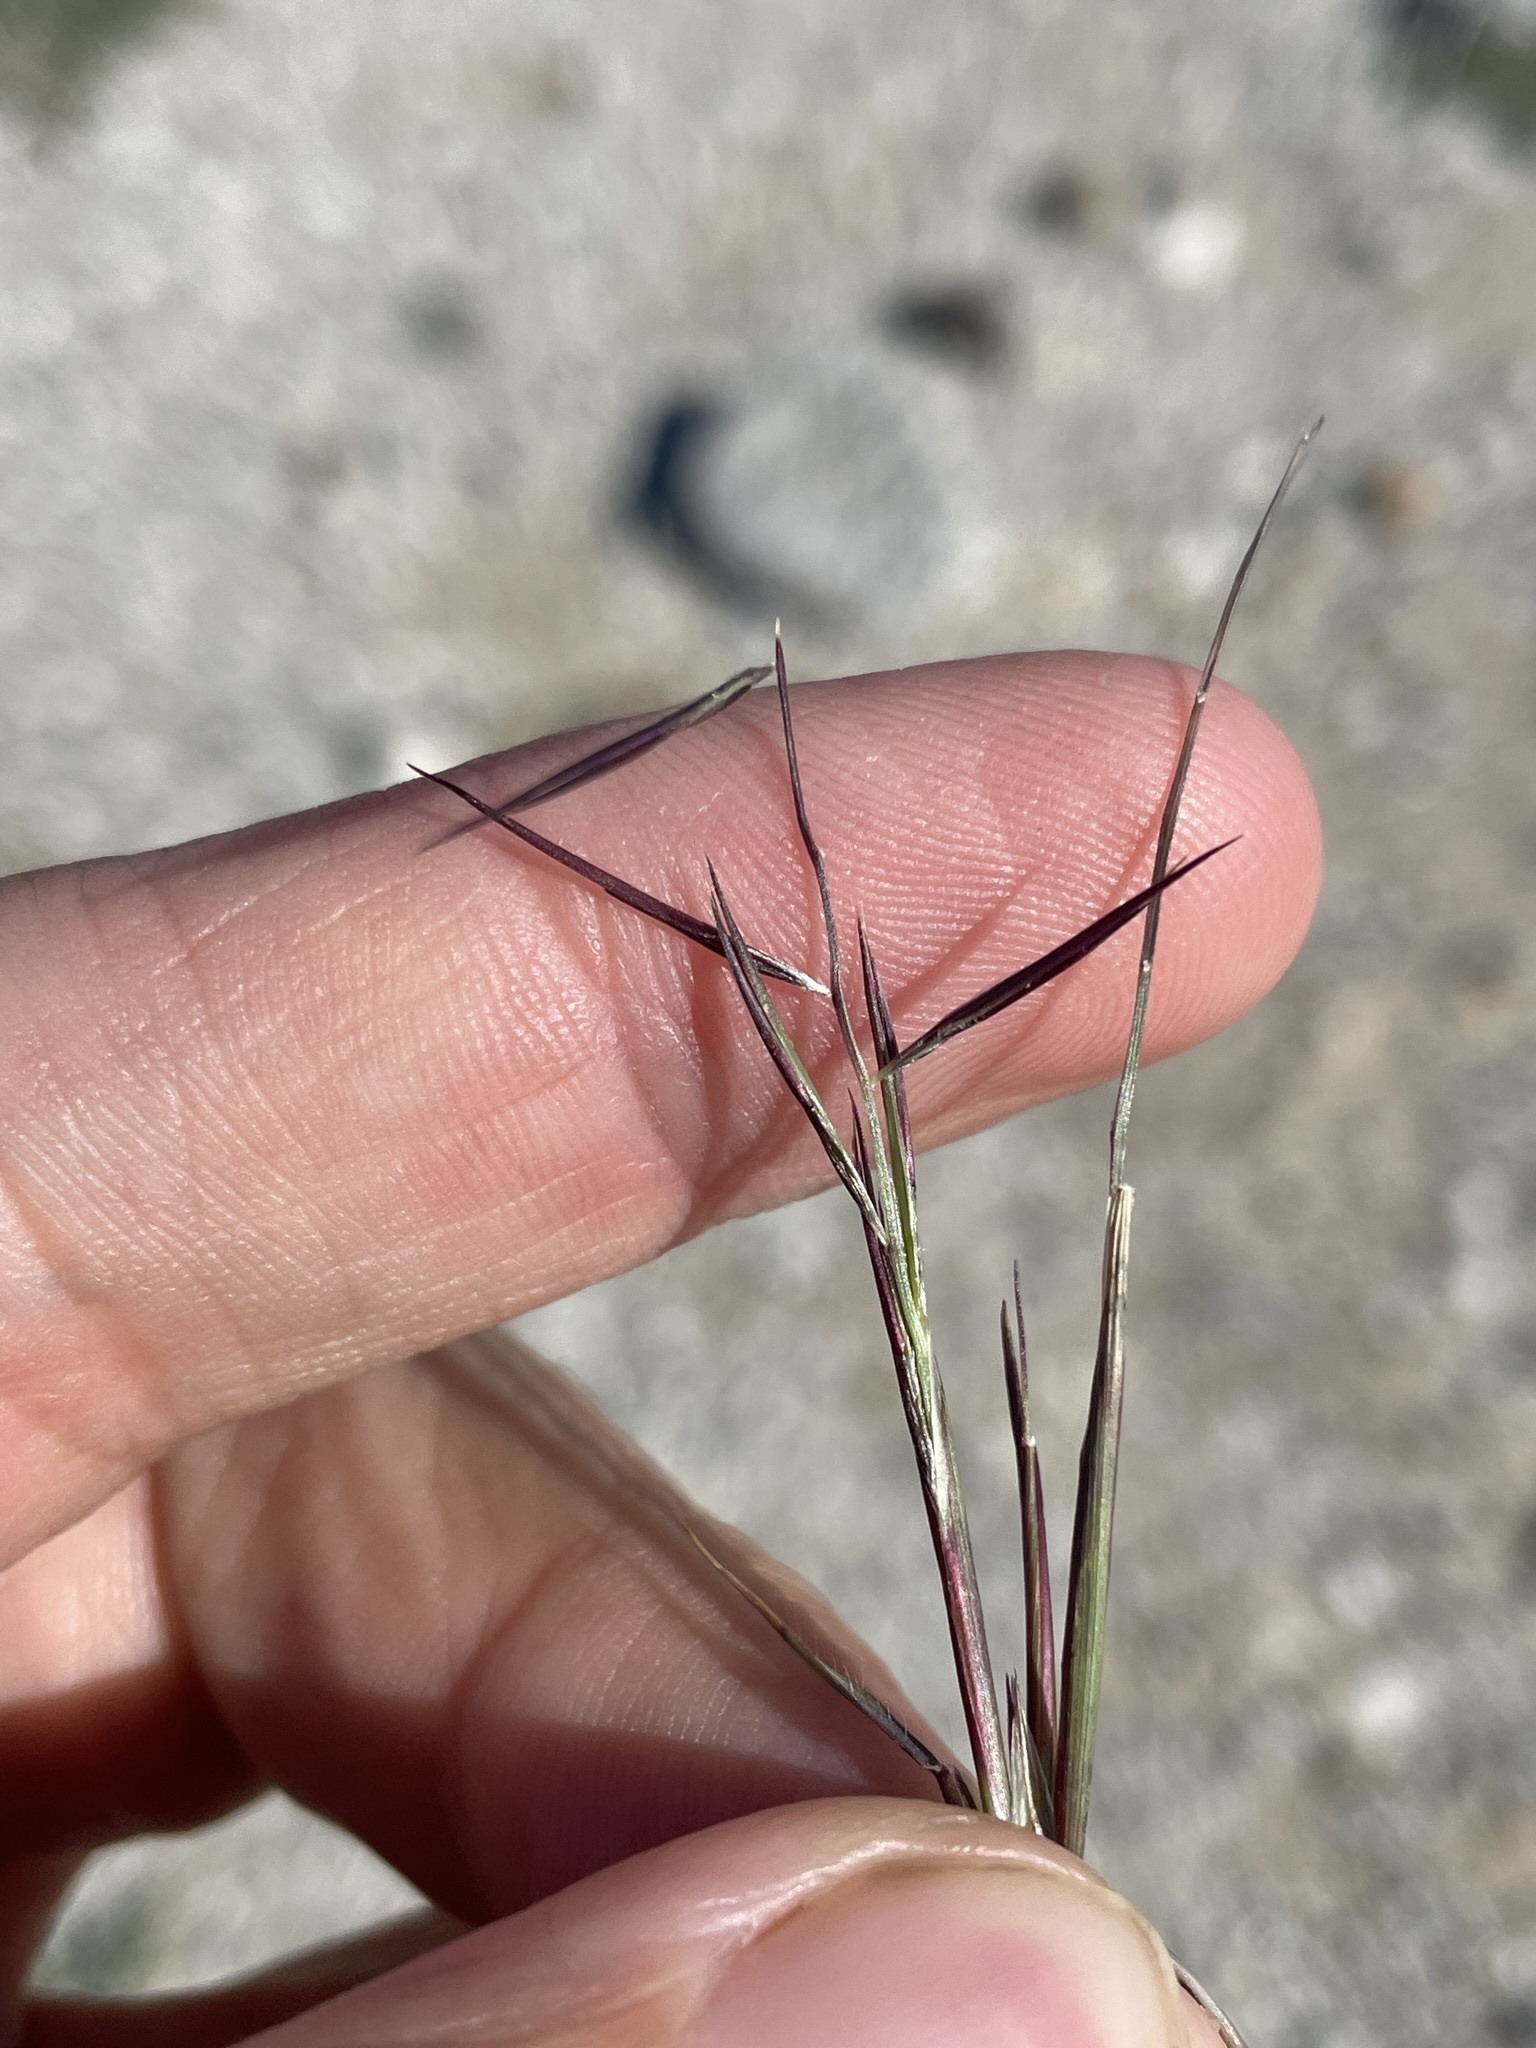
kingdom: Plantae
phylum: Tracheophyta
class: Liliopsida
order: Poales
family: Poaceae
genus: Bouteloua
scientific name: Bouteloua aristidoides
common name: Needle grama
